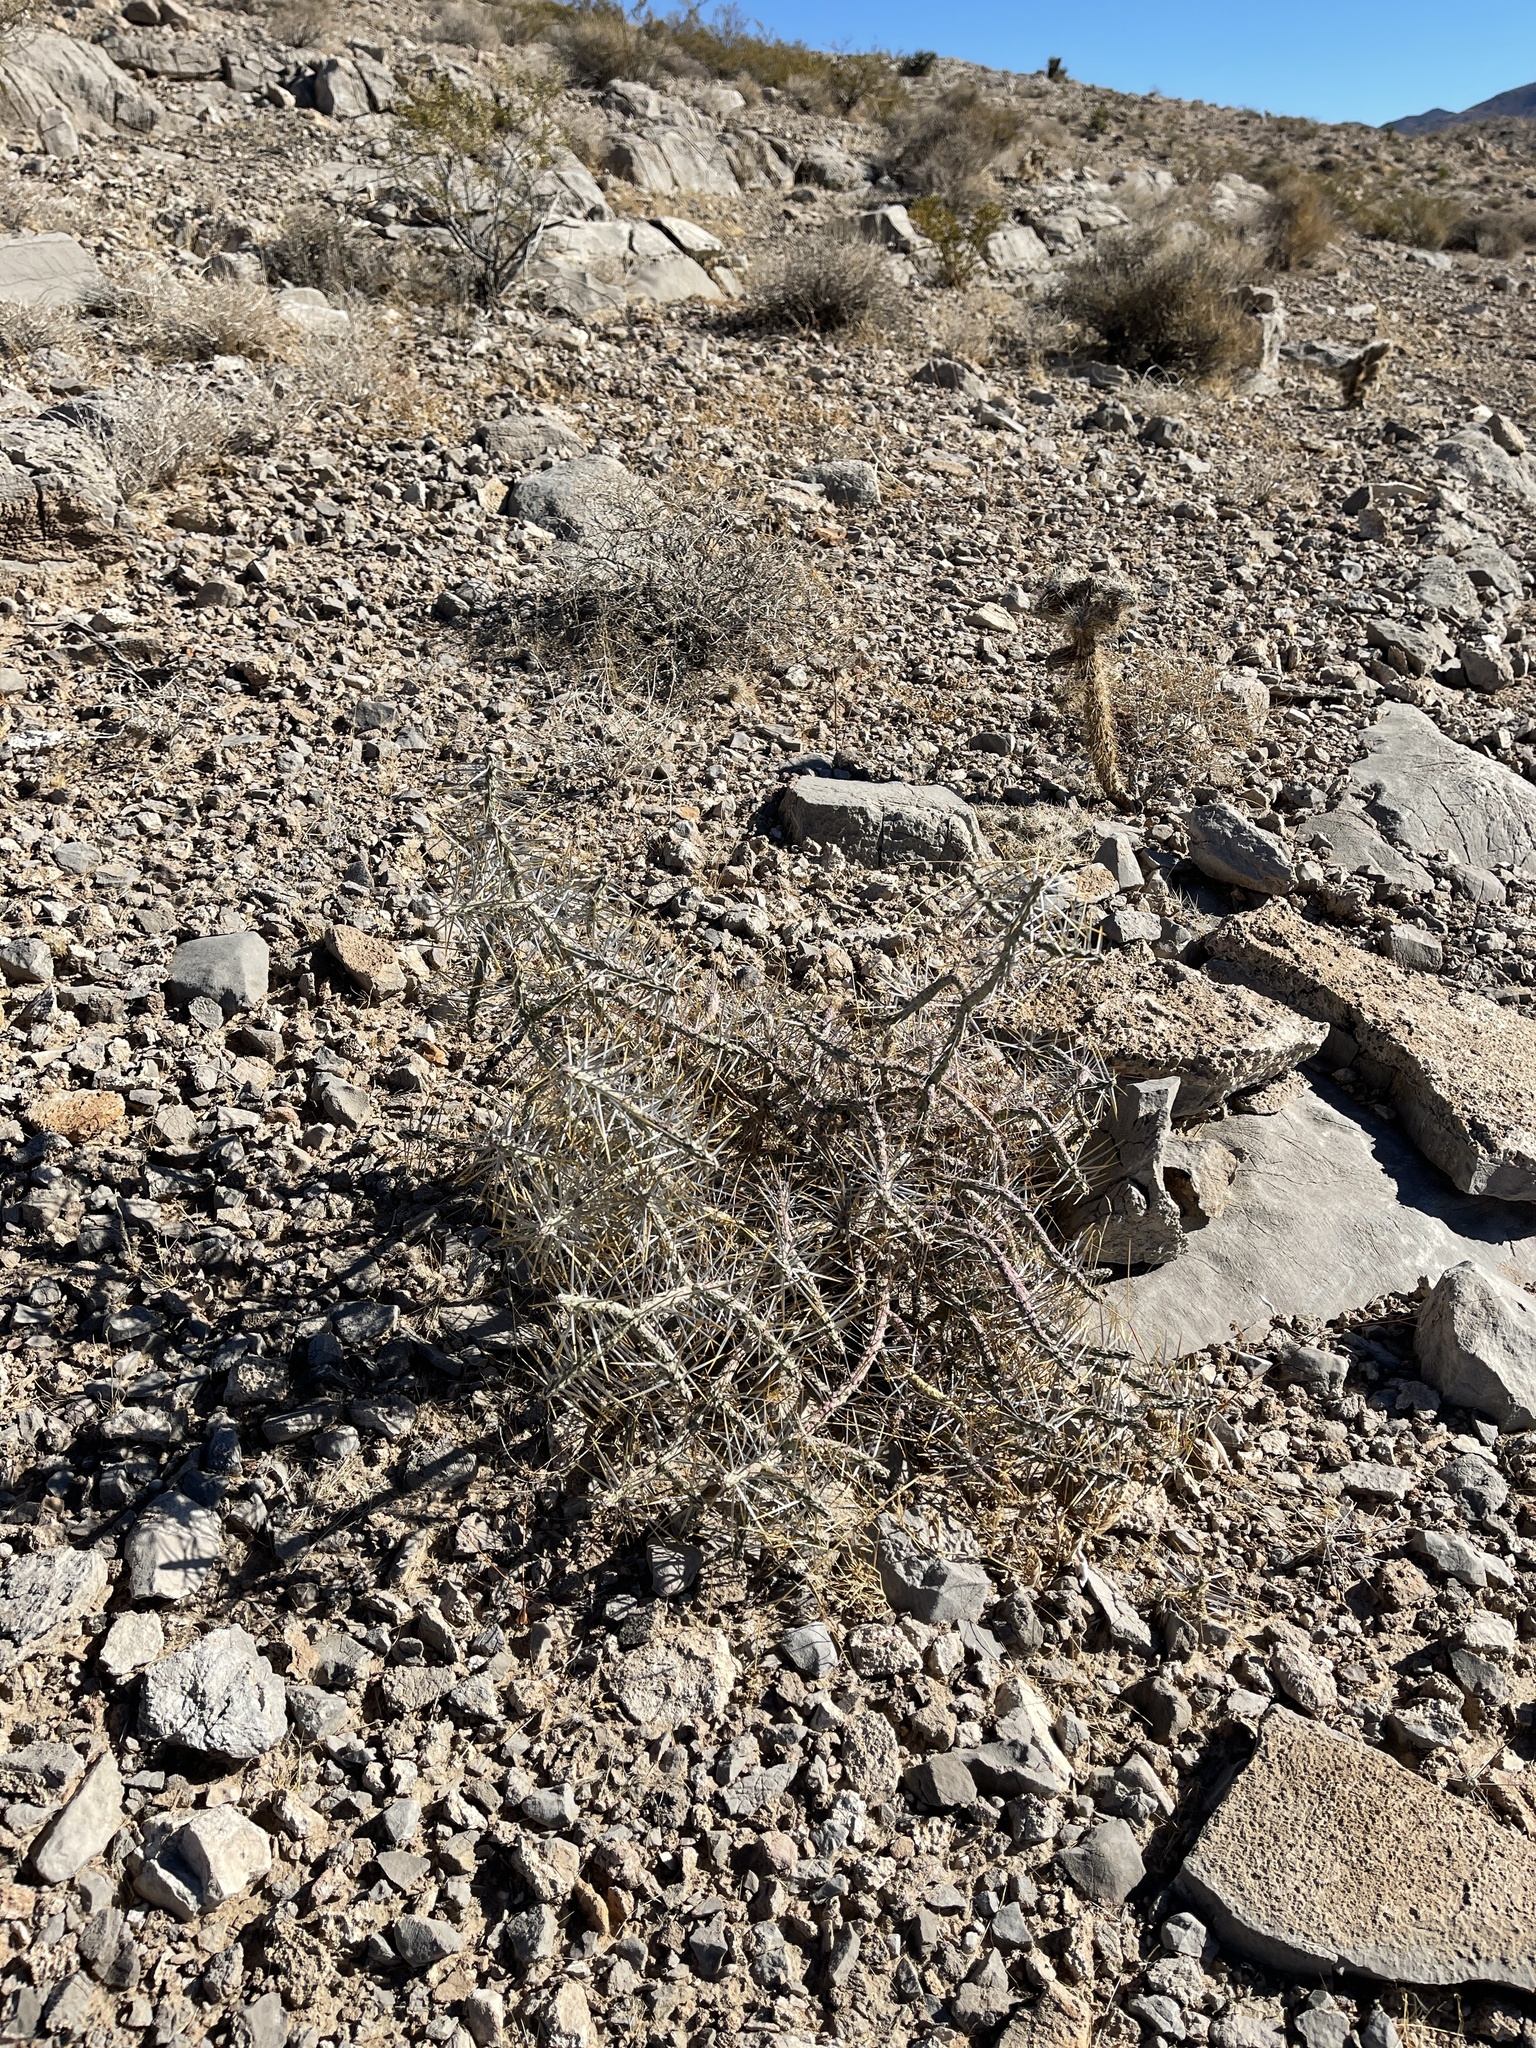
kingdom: Plantae
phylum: Tracheophyta
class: Magnoliopsida
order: Caryophyllales
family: Cactaceae
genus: Cylindropuntia
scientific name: Cylindropuntia ramosissima
